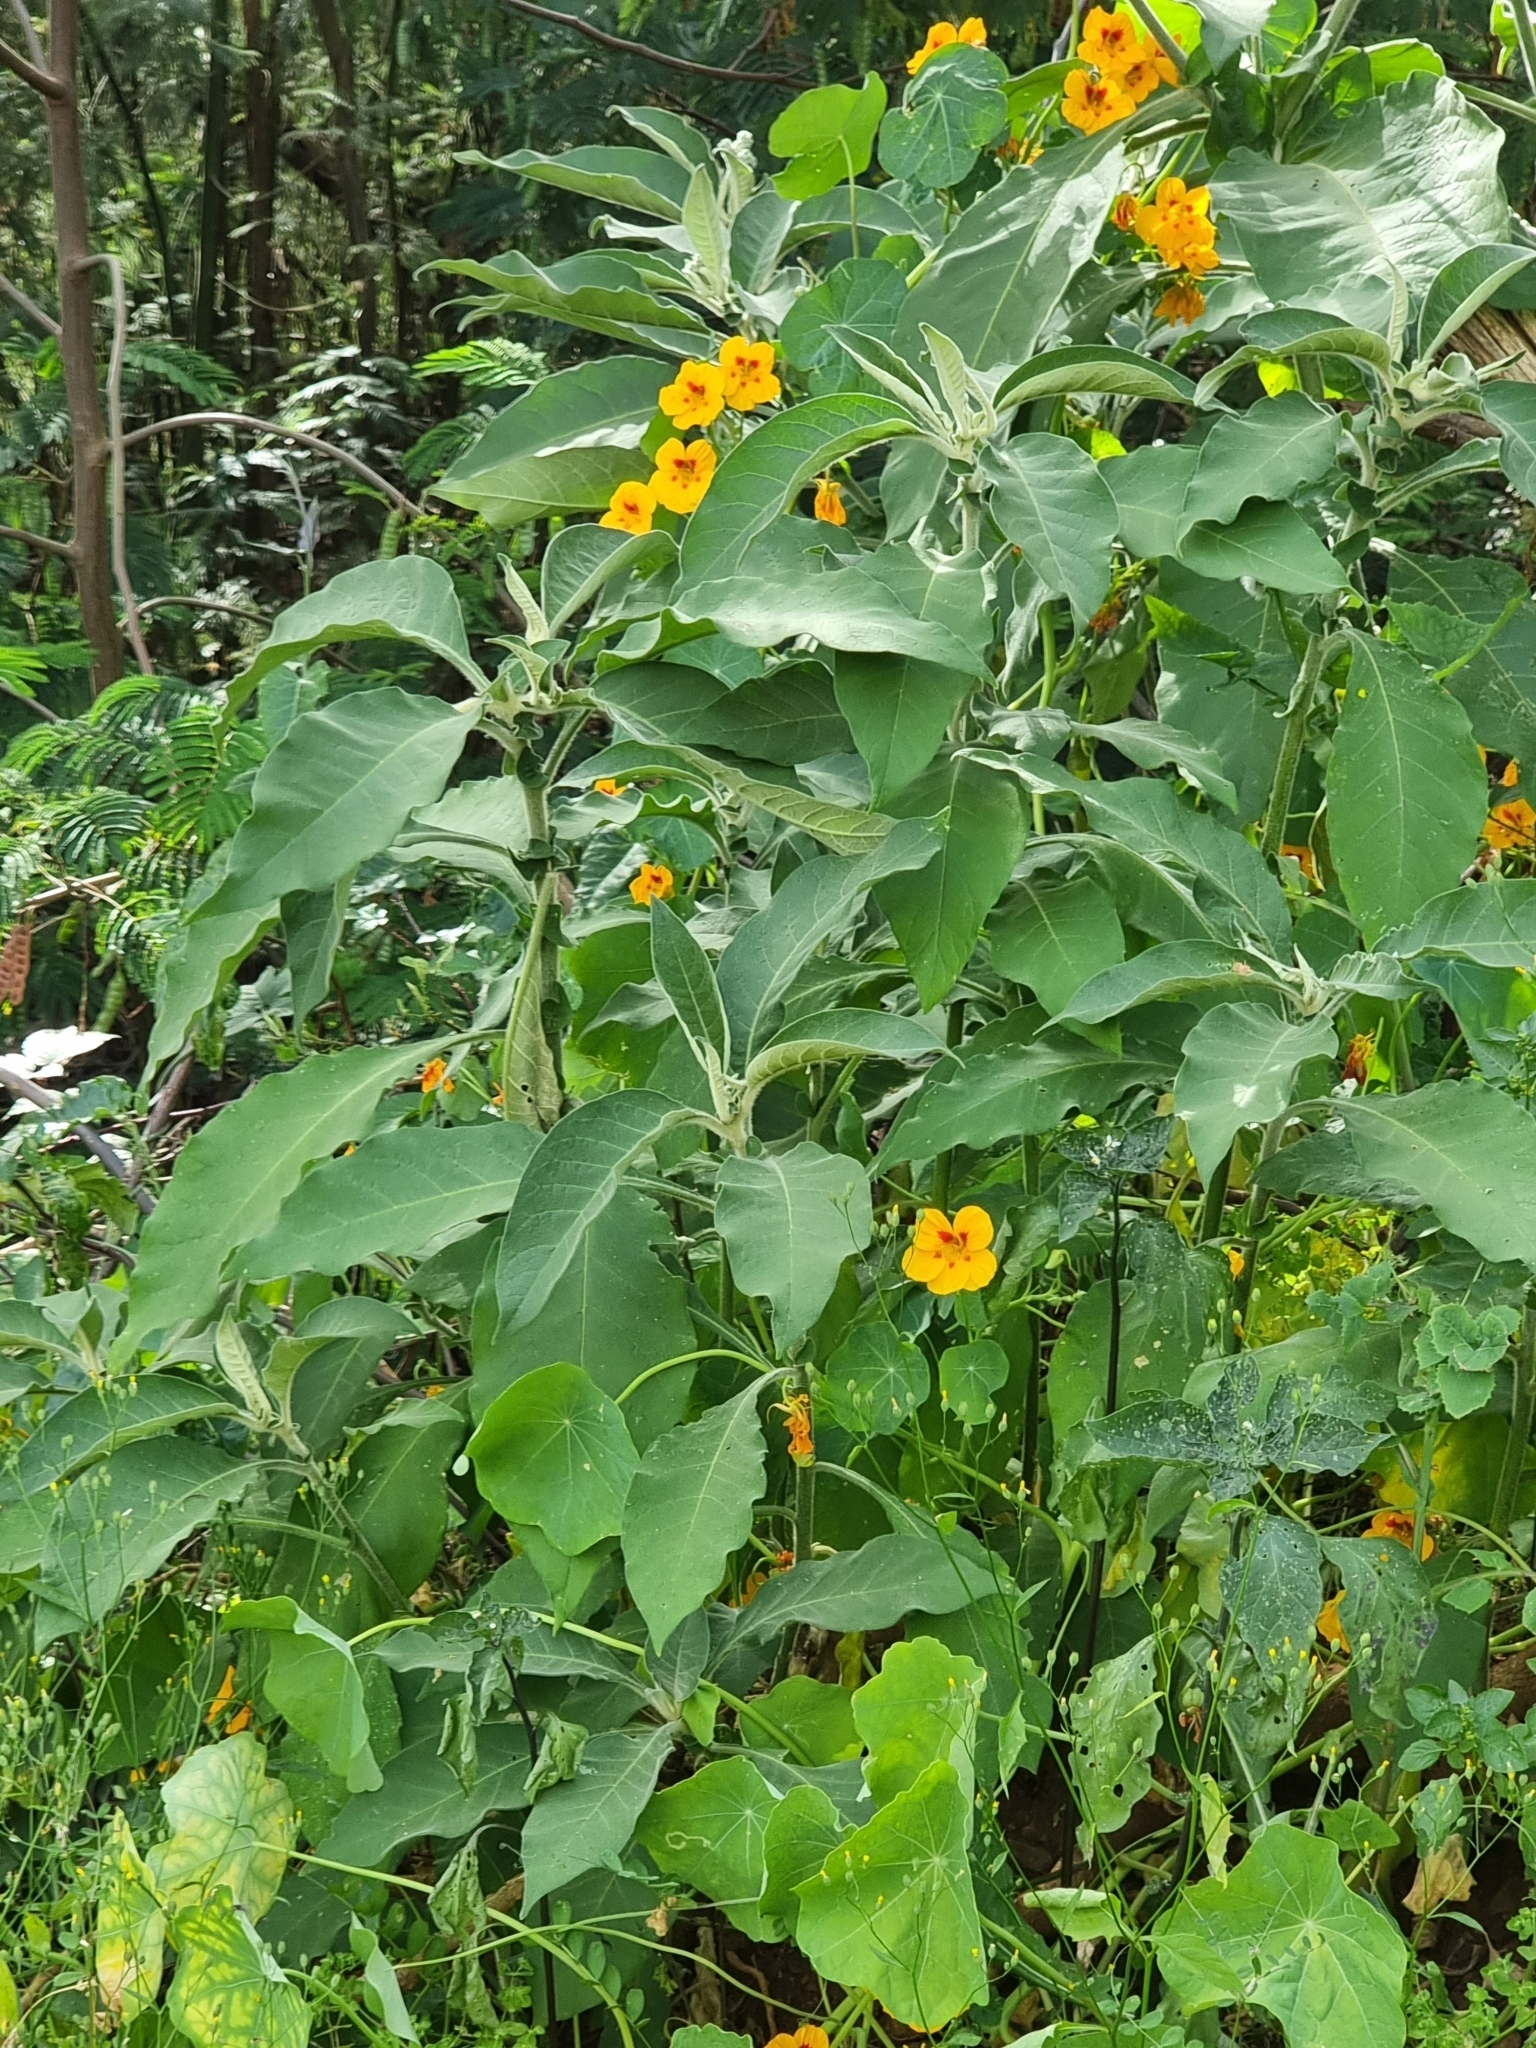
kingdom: Plantae
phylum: Tracheophyta
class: Magnoliopsida
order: Solanales
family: Solanaceae
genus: Solanum
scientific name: Solanum mauritianum
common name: Earleaf nightshade
